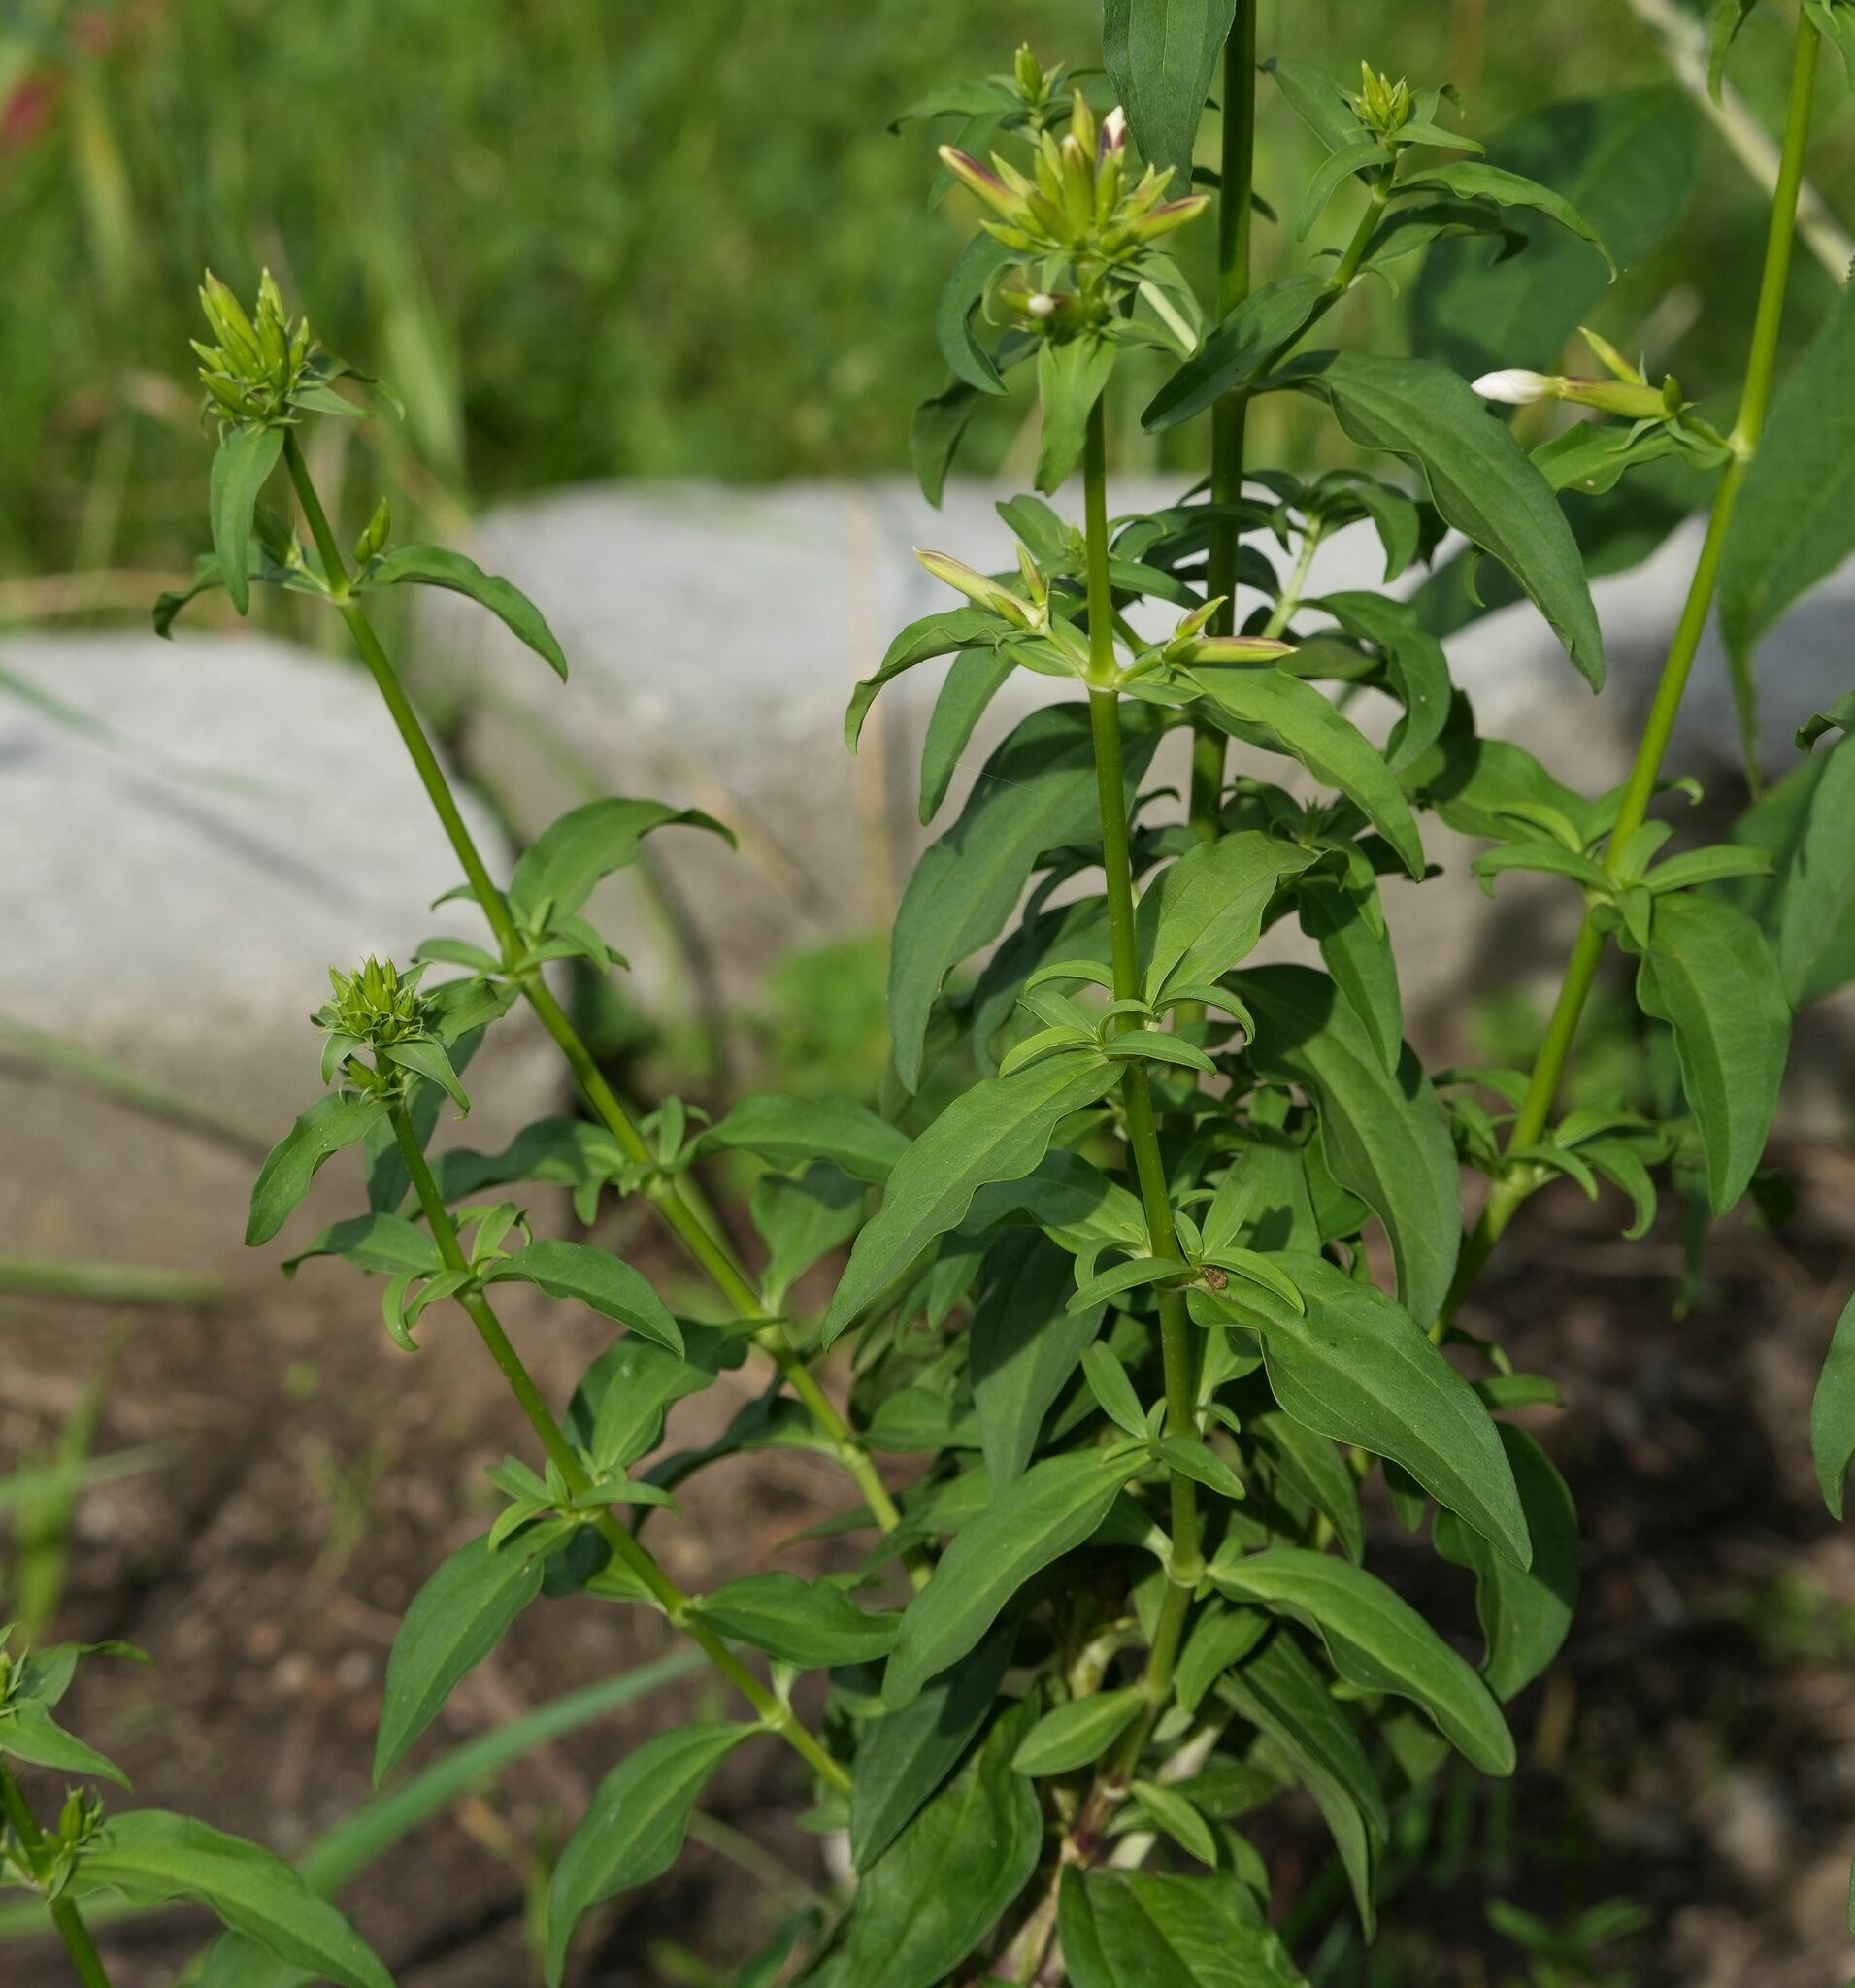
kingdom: Plantae
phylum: Tracheophyta
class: Magnoliopsida
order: Caryophyllales
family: Caryophyllaceae
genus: Saponaria
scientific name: Saponaria officinalis
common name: Soapwort
